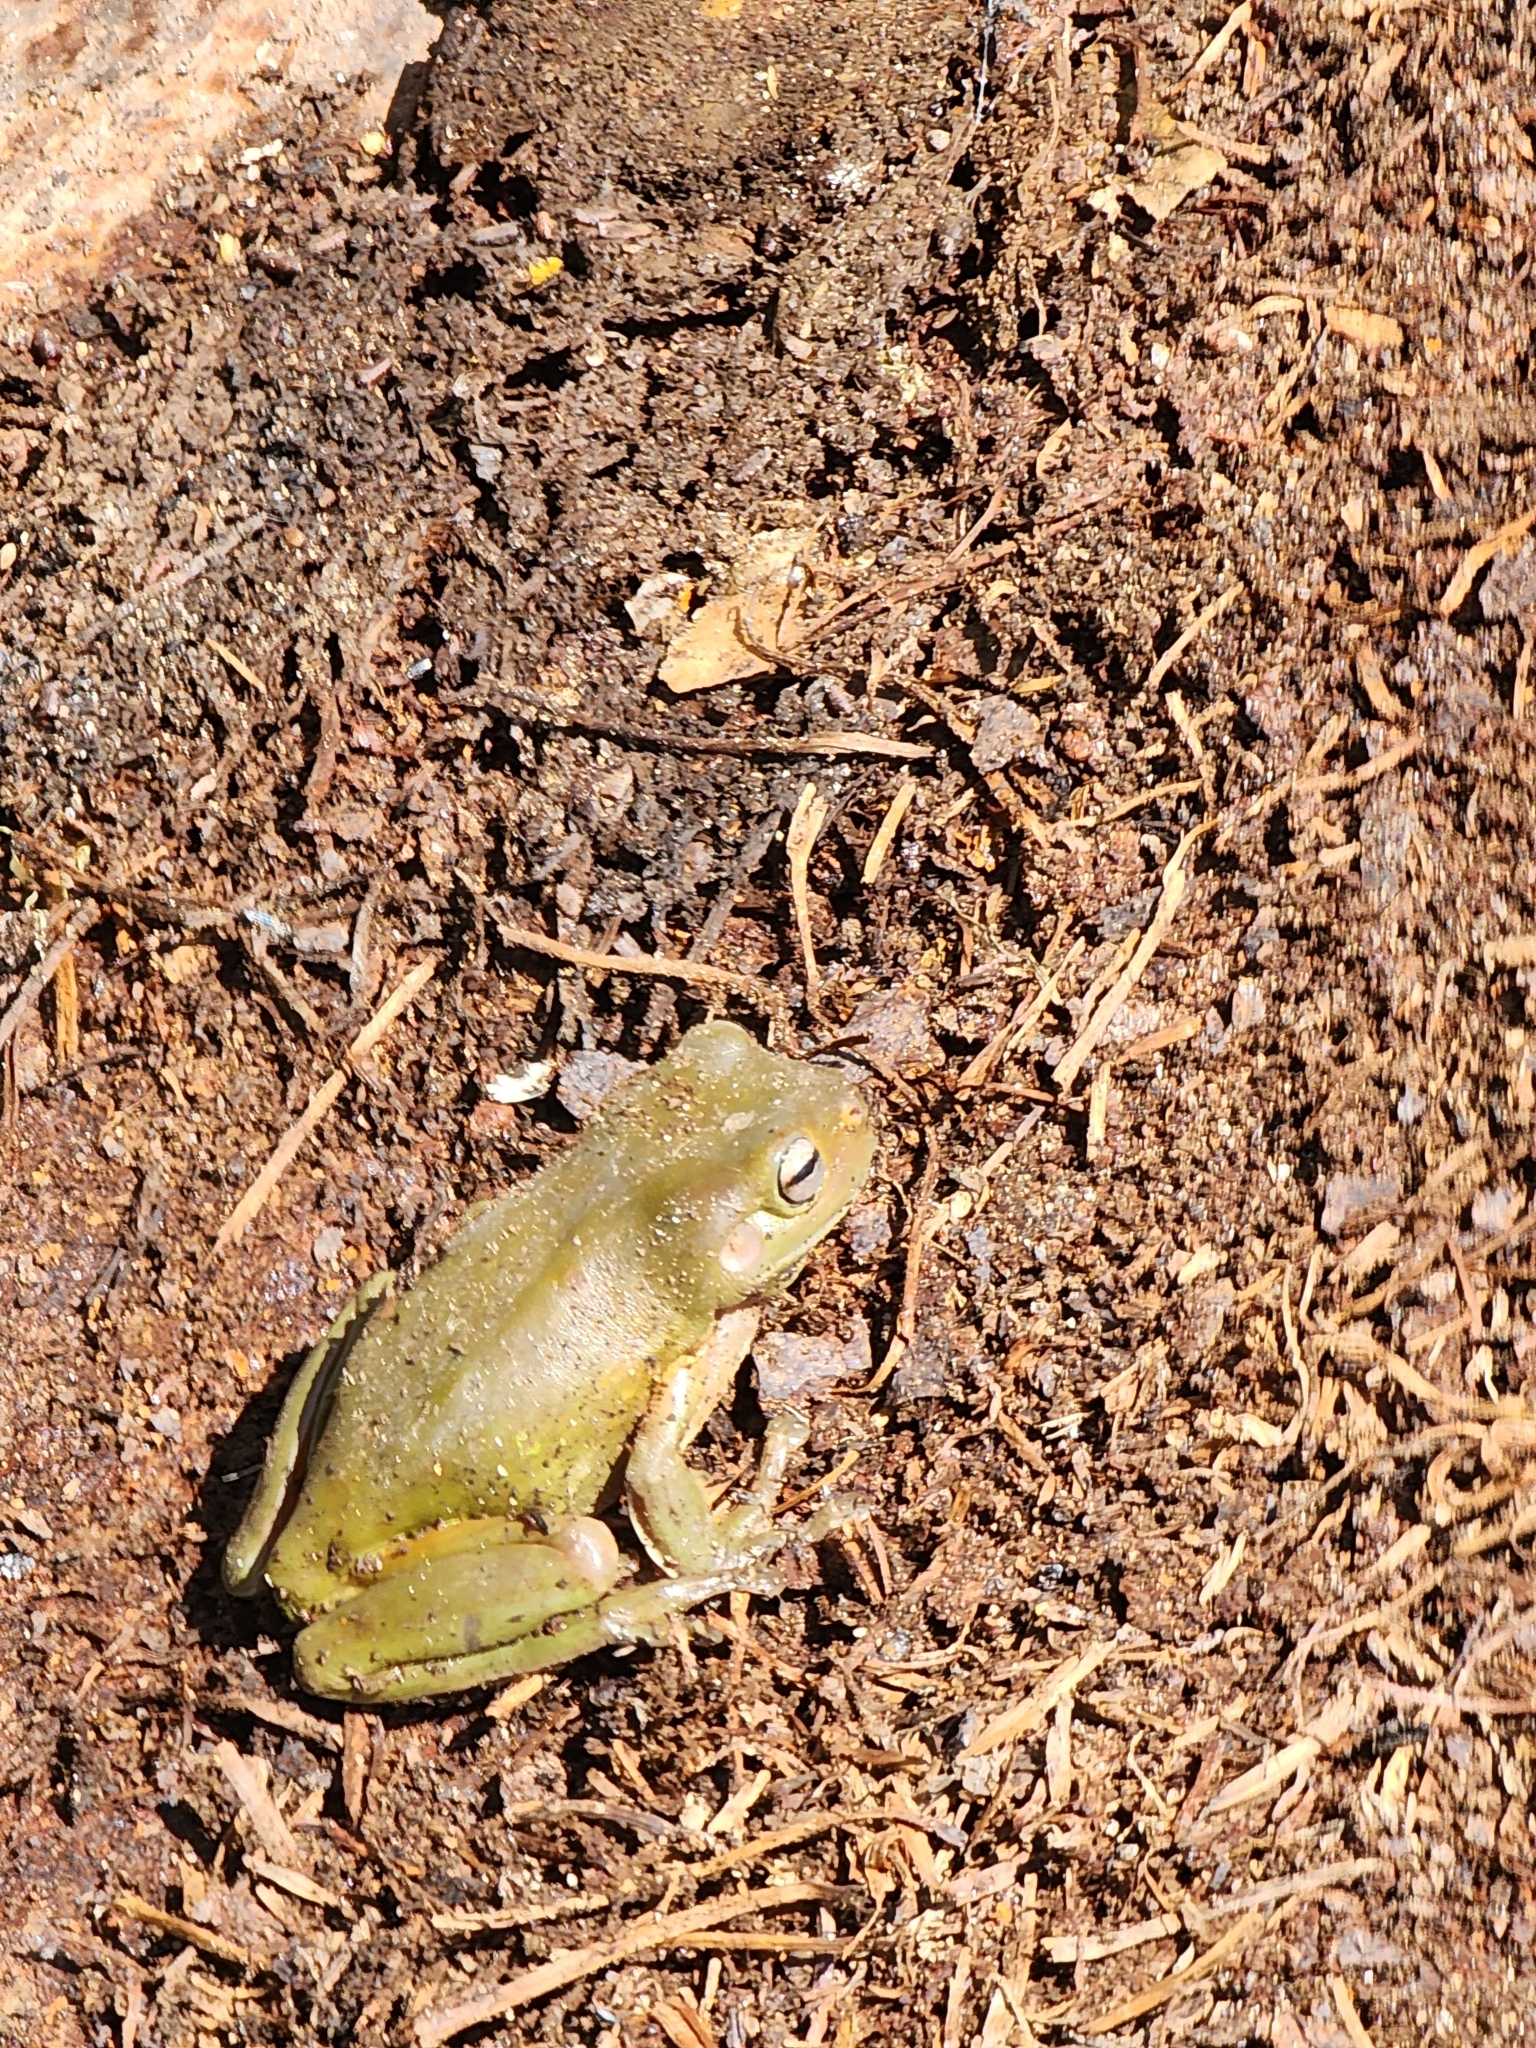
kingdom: Animalia
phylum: Chordata
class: Amphibia
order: Anura
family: Pelodryadidae
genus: Ranoidea
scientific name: Ranoidea caerulea
